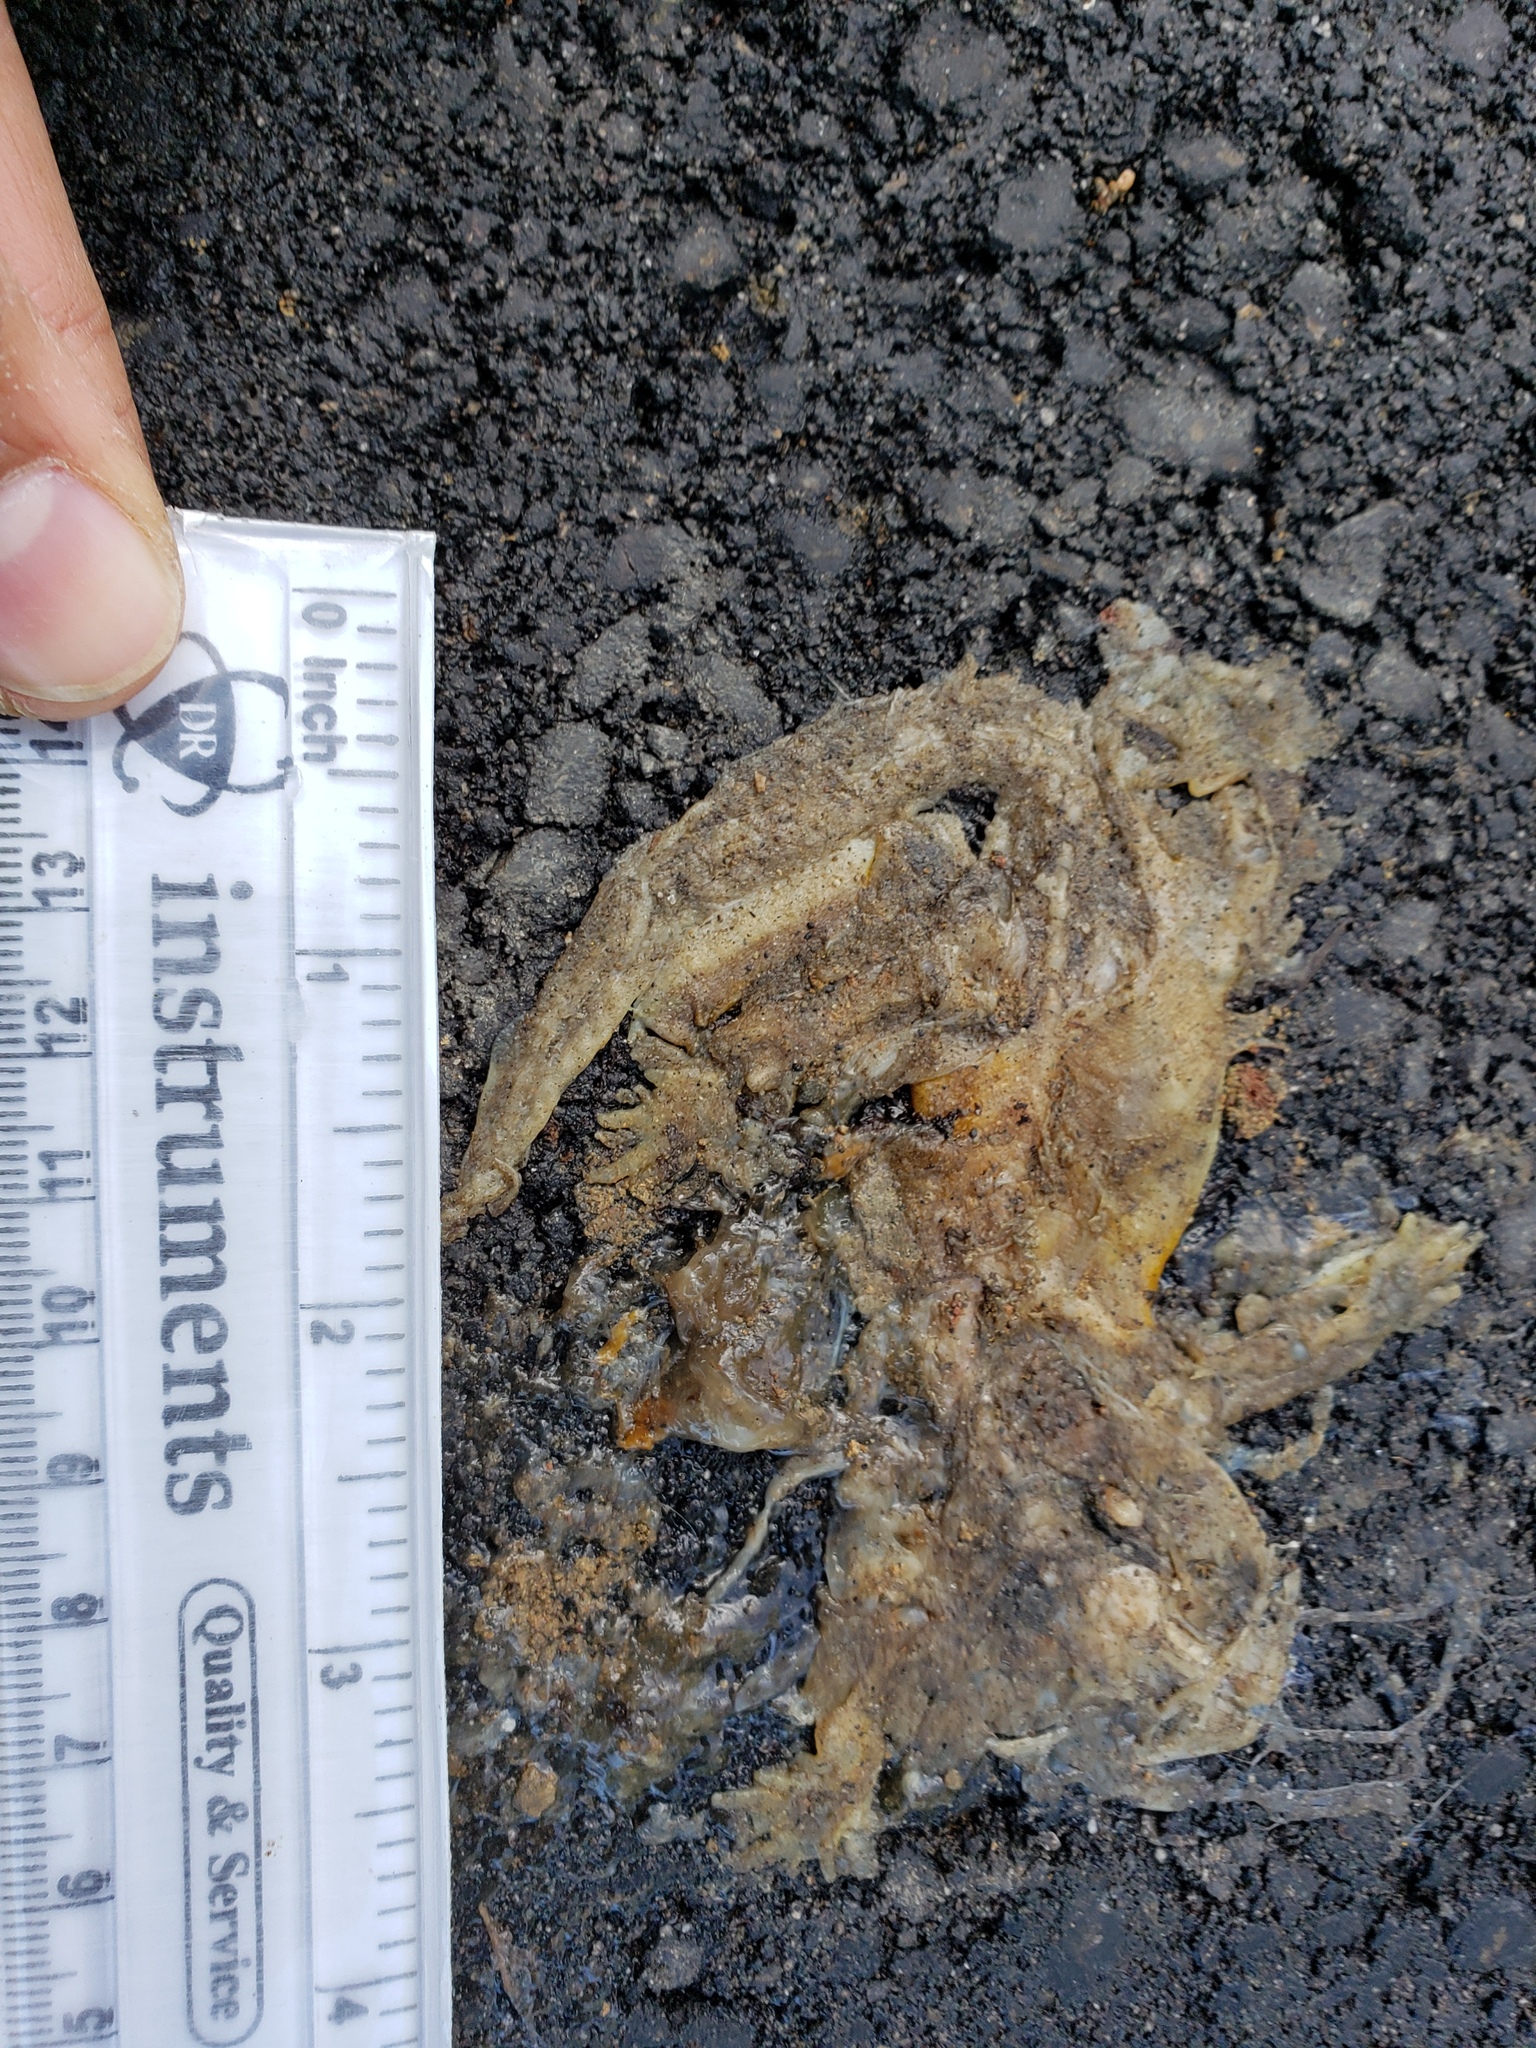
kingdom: Animalia
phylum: Chordata
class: Amphibia
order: Caudata
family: Salamandridae
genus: Taricha
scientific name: Taricha
